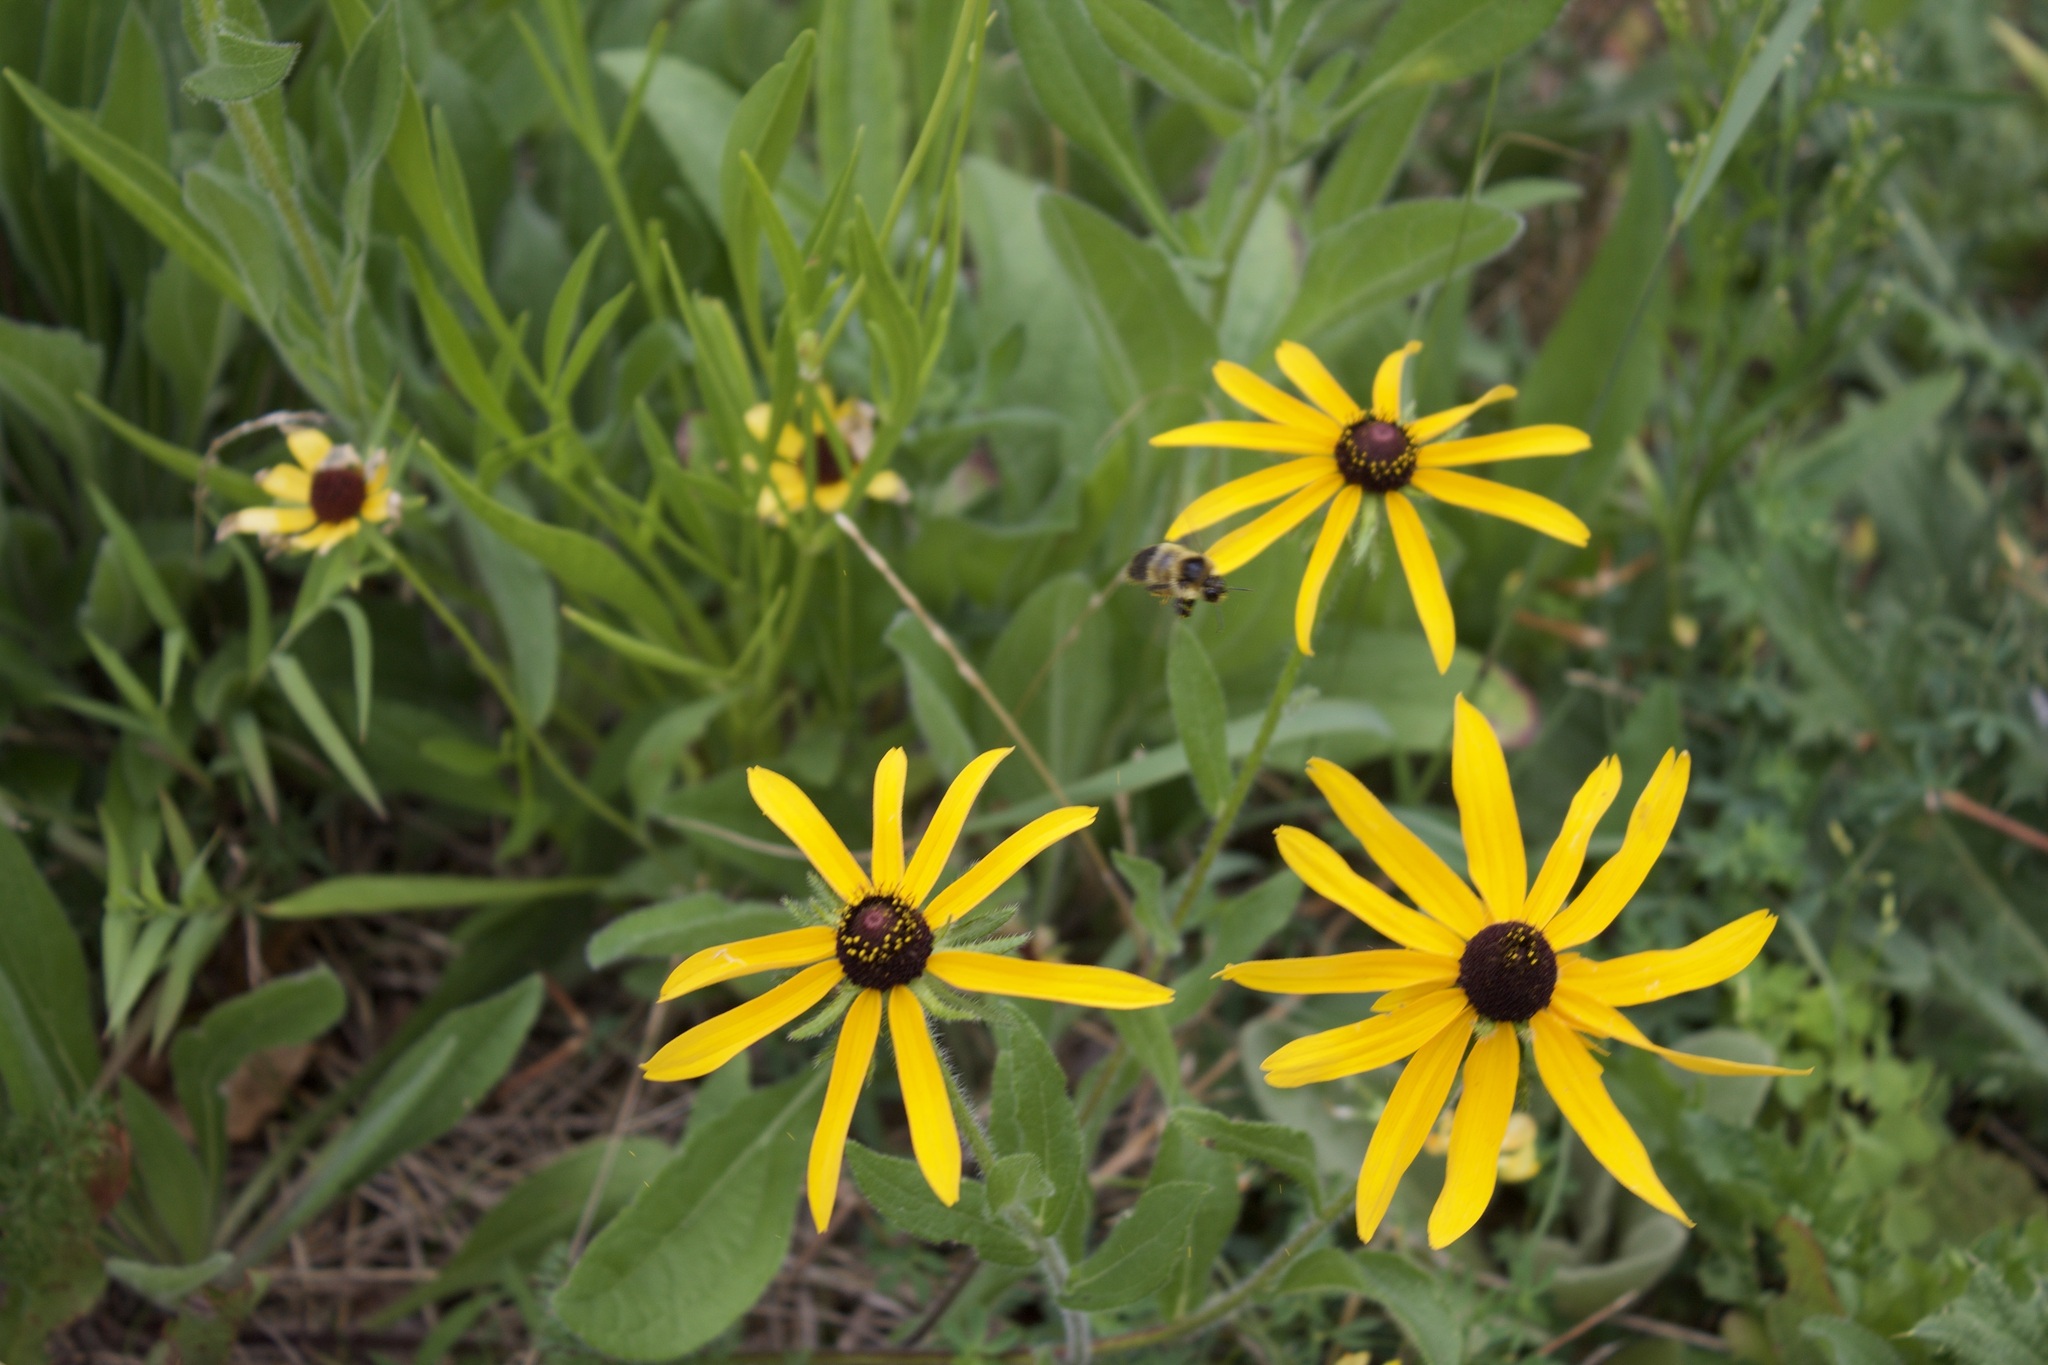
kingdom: Animalia
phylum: Arthropoda
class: Insecta
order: Hymenoptera
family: Apidae
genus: Bombus
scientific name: Bombus rufocinctus
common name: Red-belted bumble bee
